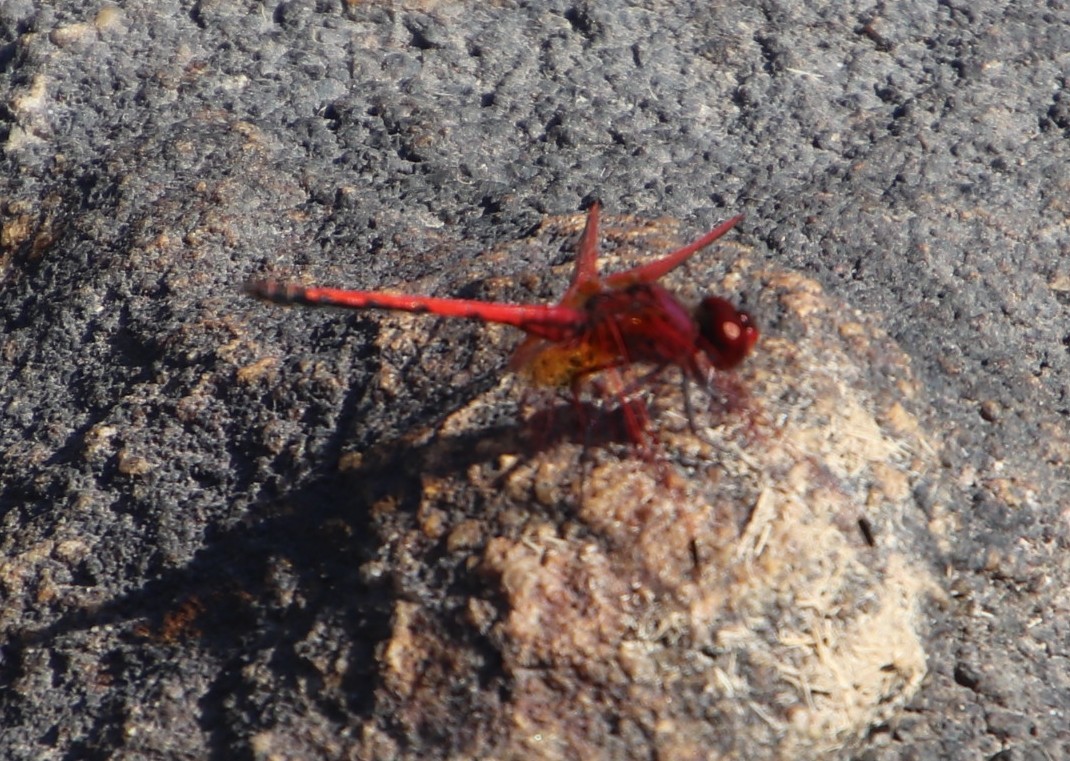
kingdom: Animalia
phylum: Arthropoda
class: Insecta
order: Odonata
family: Libellulidae
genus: Trithemis
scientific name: Trithemis arteriosa
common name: Red-veined dropwing
